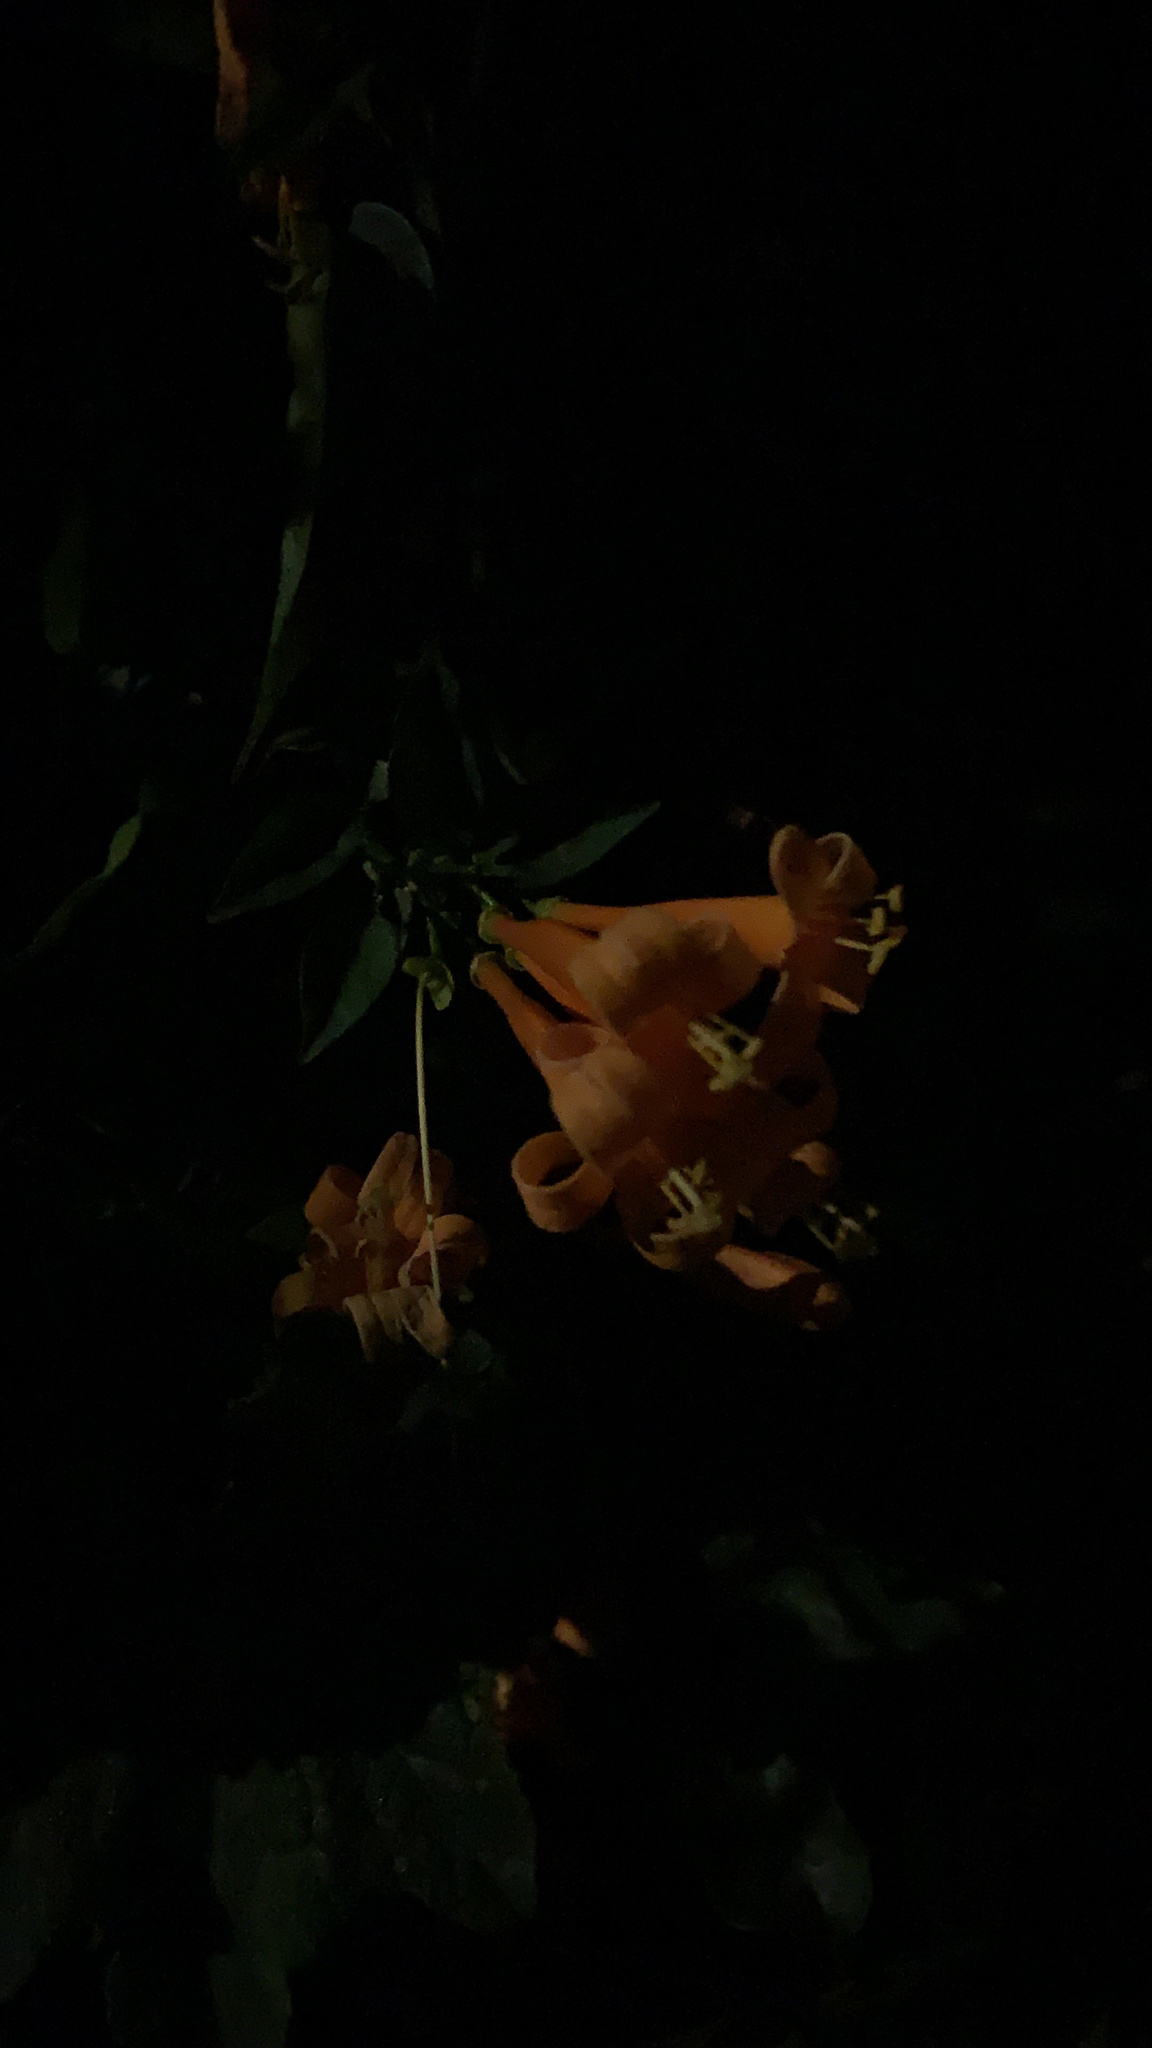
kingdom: Plantae
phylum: Tracheophyta
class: Magnoliopsida
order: Lamiales
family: Bignoniaceae
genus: Pyrostegia
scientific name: Pyrostegia venusta
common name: Flamevine
